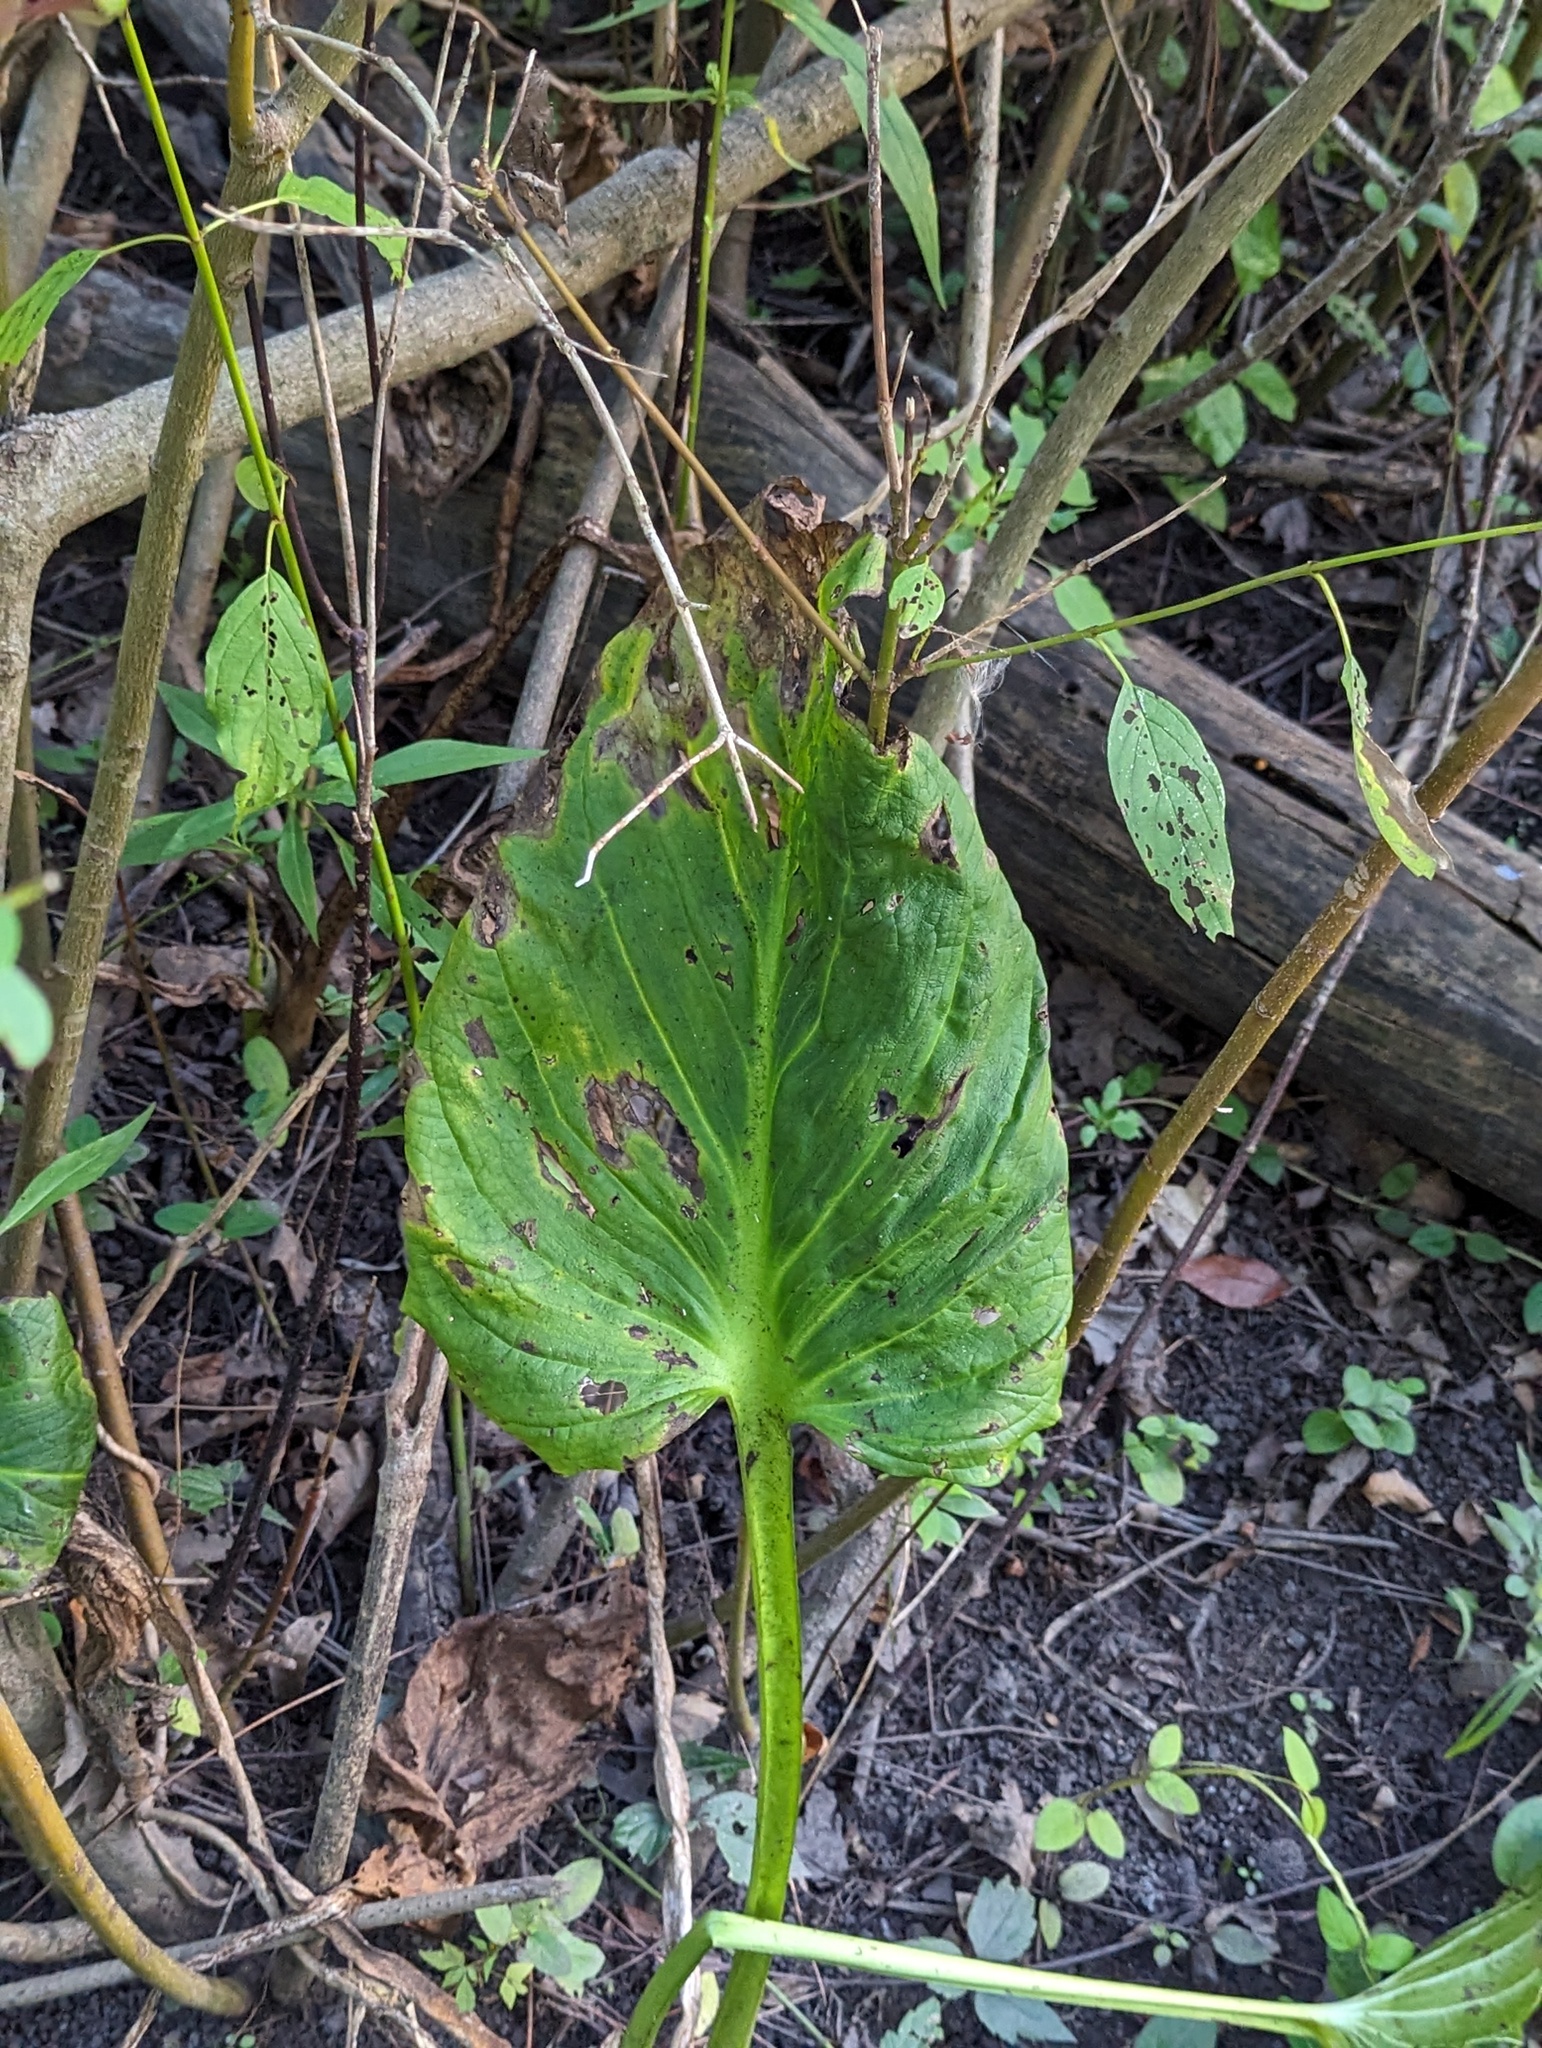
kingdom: Plantae
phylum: Tracheophyta
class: Liliopsida
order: Alismatales
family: Araceae
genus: Symplocarpus
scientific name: Symplocarpus foetidus
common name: Eastern skunk cabbage
